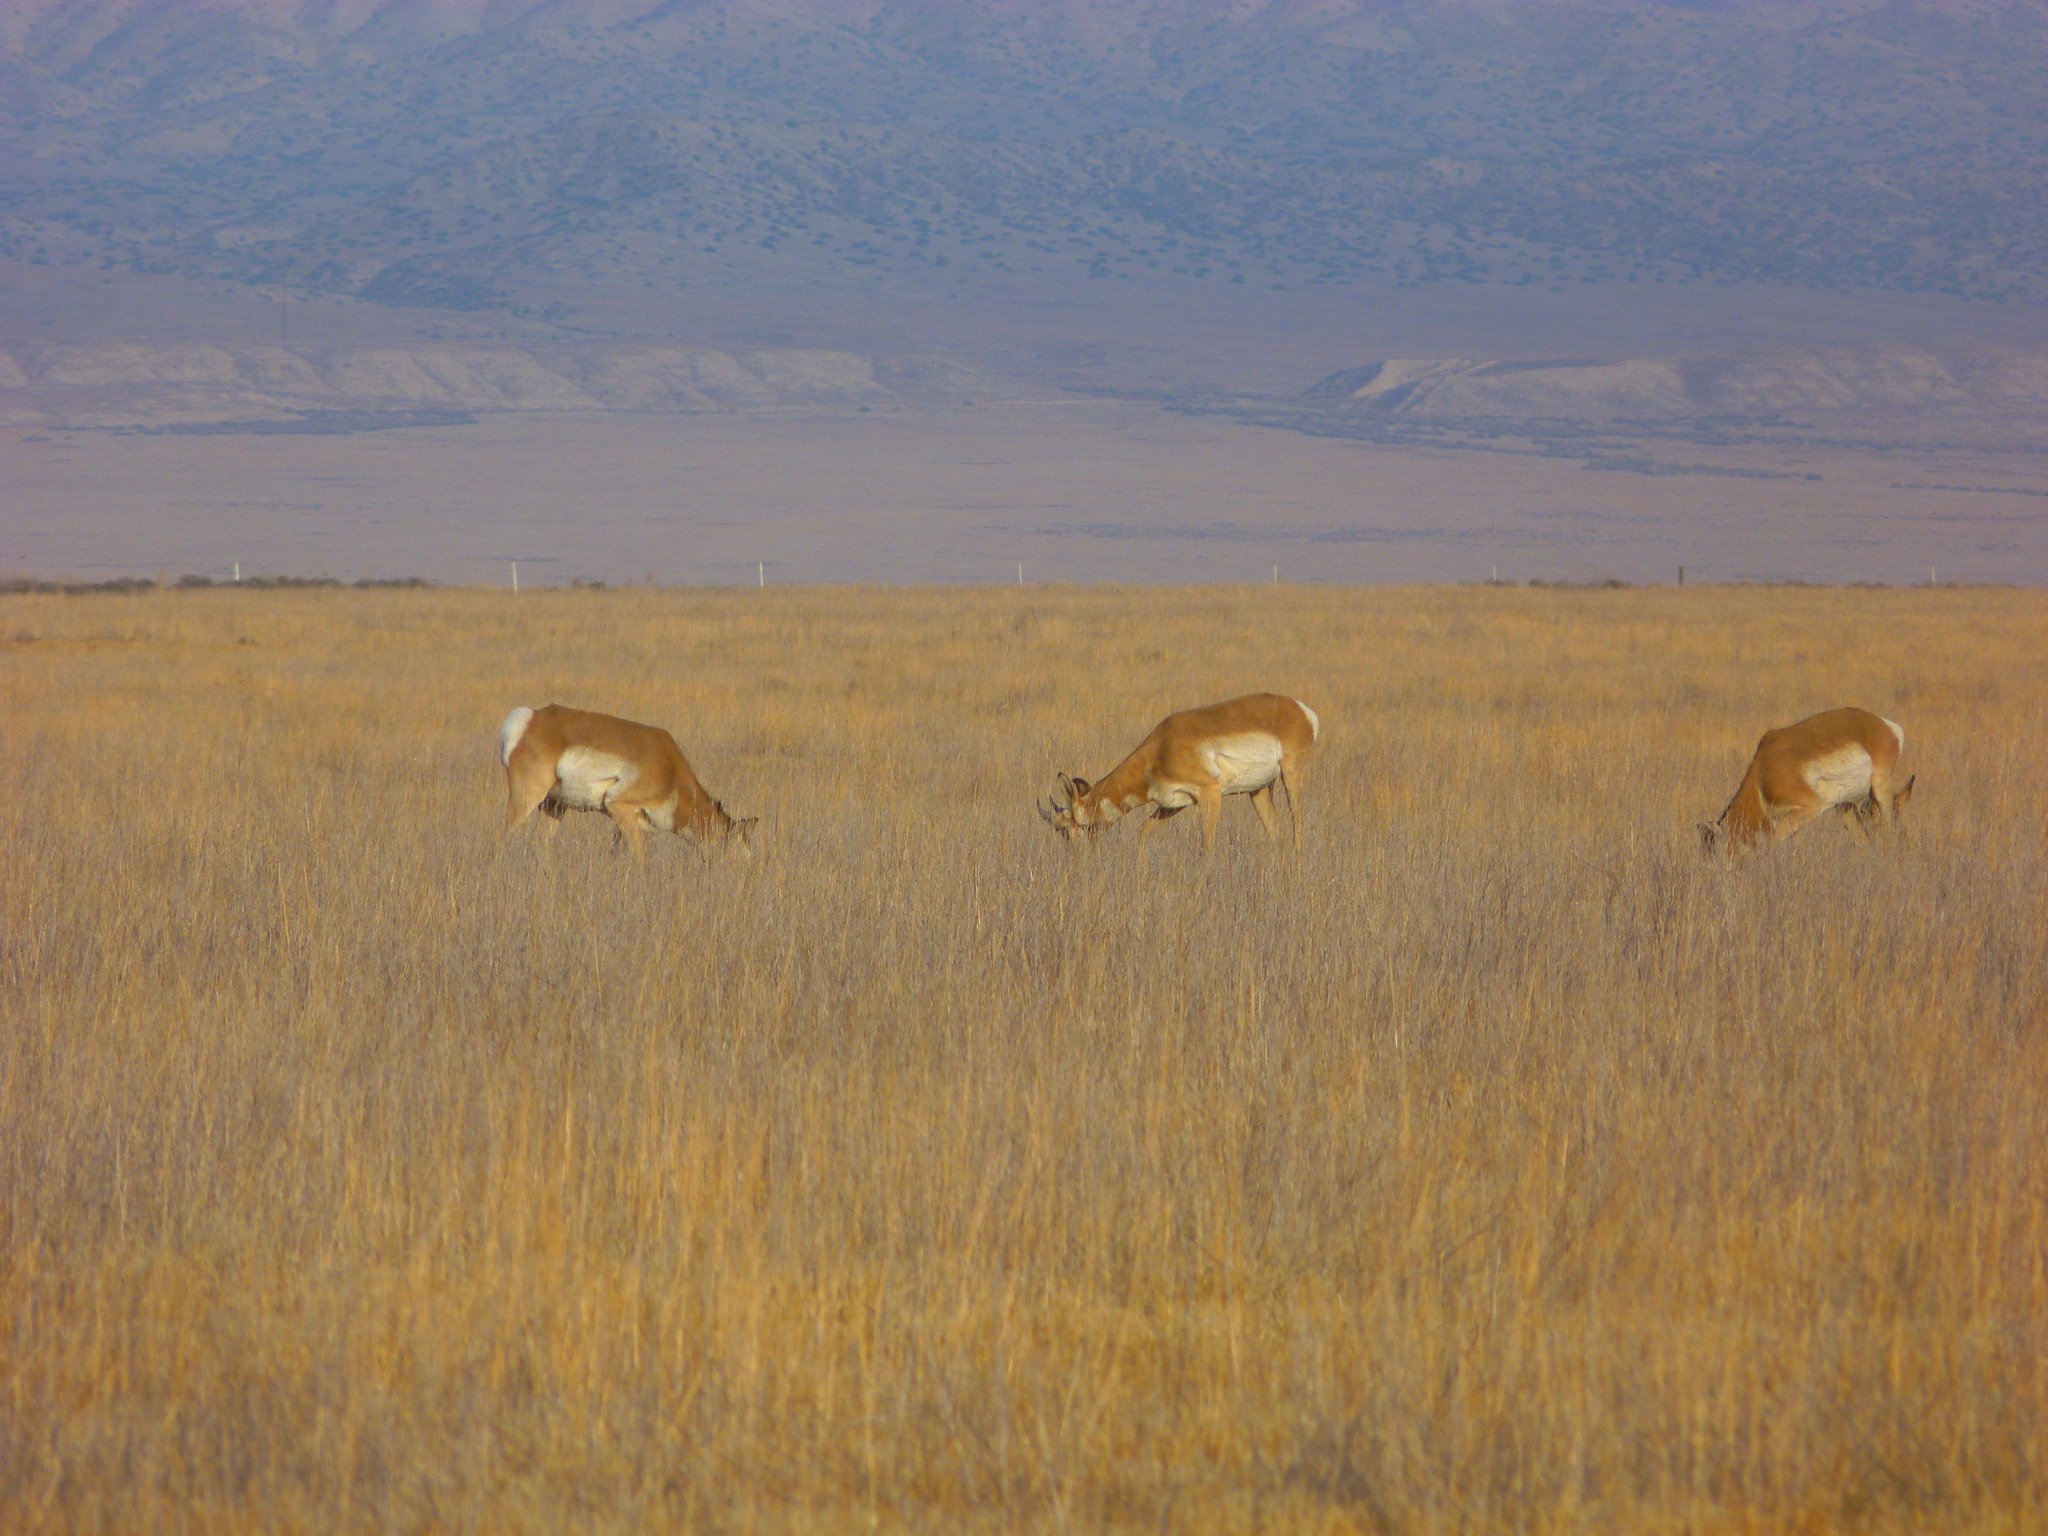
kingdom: Animalia
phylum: Chordata
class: Mammalia
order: Artiodactyla
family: Antilocapridae
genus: Antilocapra
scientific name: Antilocapra americana
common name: Pronghorn
